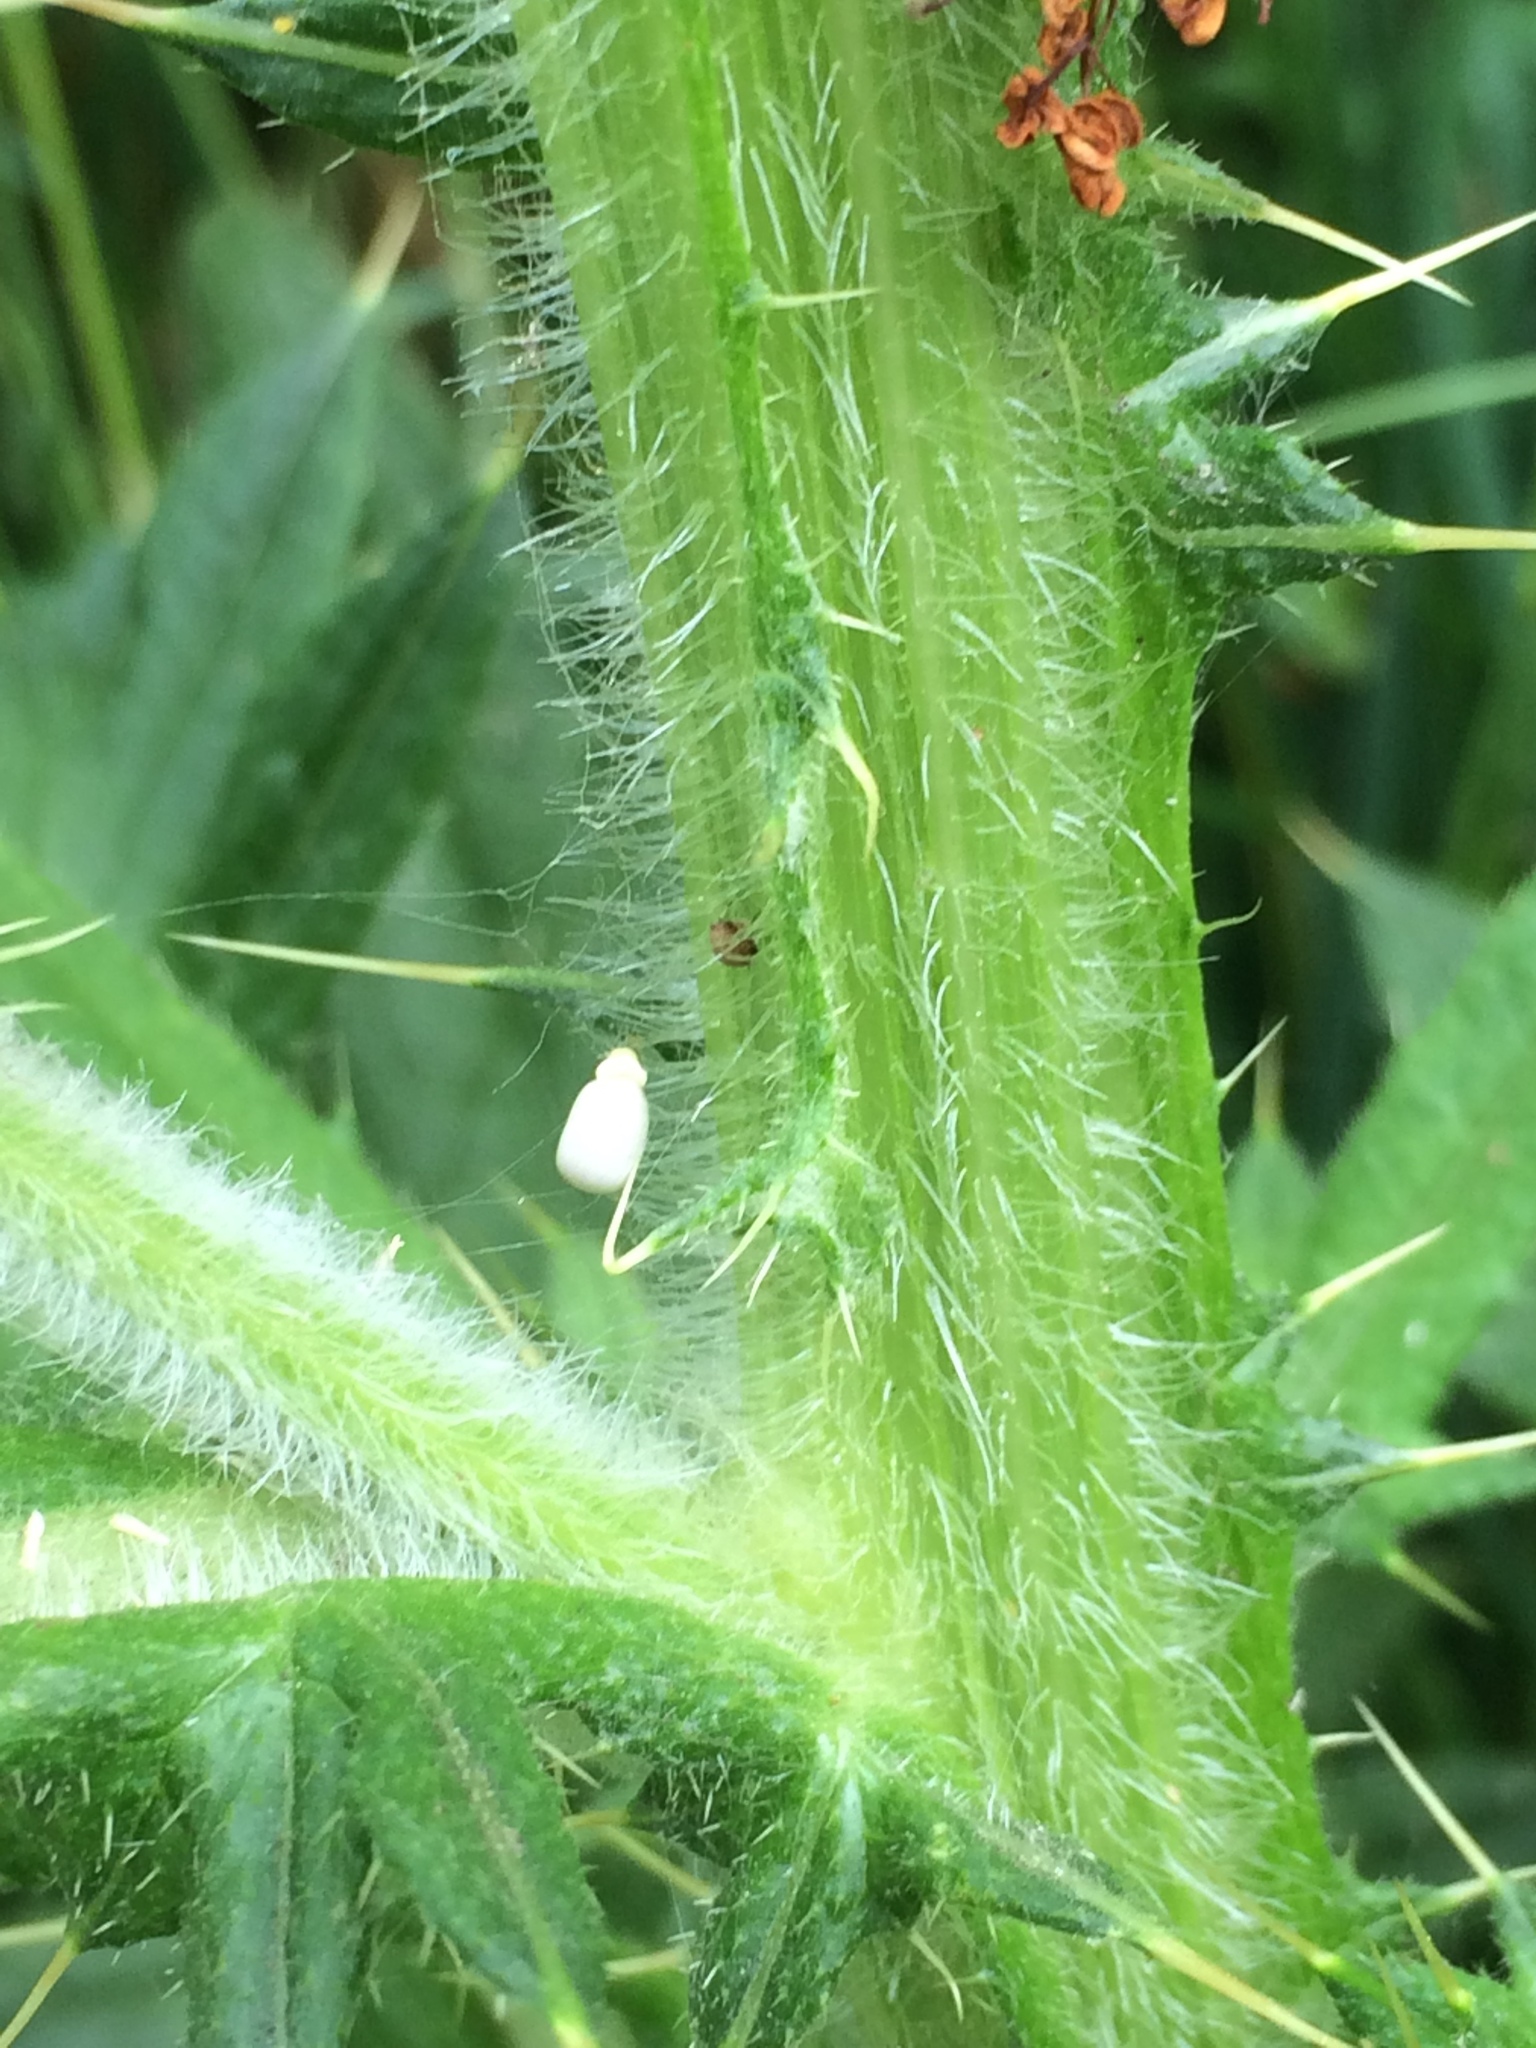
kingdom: Plantae
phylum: Tracheophyta
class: Magnoliopsida
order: Asterales
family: Asteraceae
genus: Cirsium
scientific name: Cirsium vulgare
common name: Bull thistle
